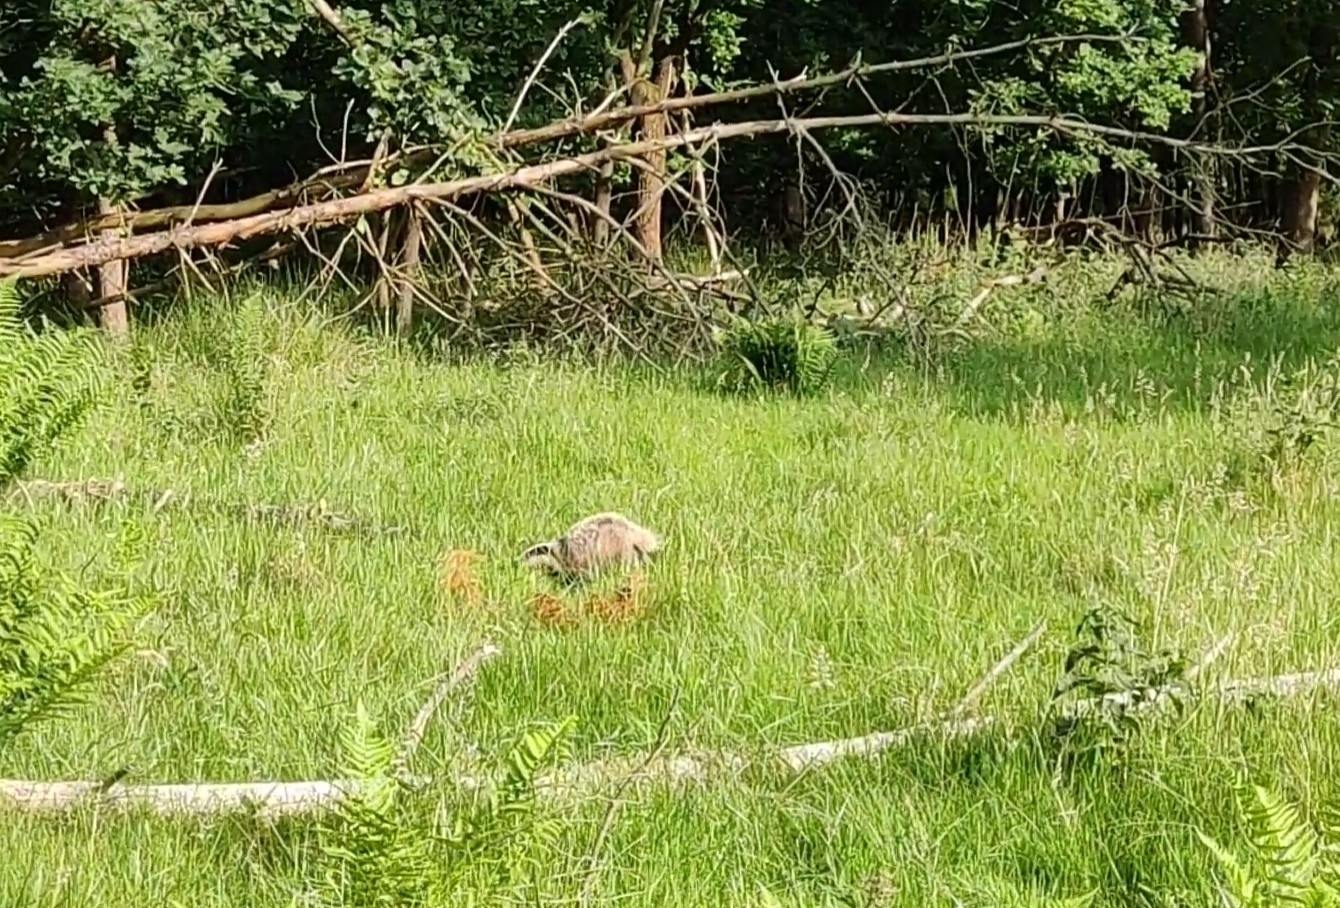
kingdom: Animalia
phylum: Chordata
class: Mammalia
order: Carnivora
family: Mustelidae
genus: Meles
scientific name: Meles meles
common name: Eurasian badger
